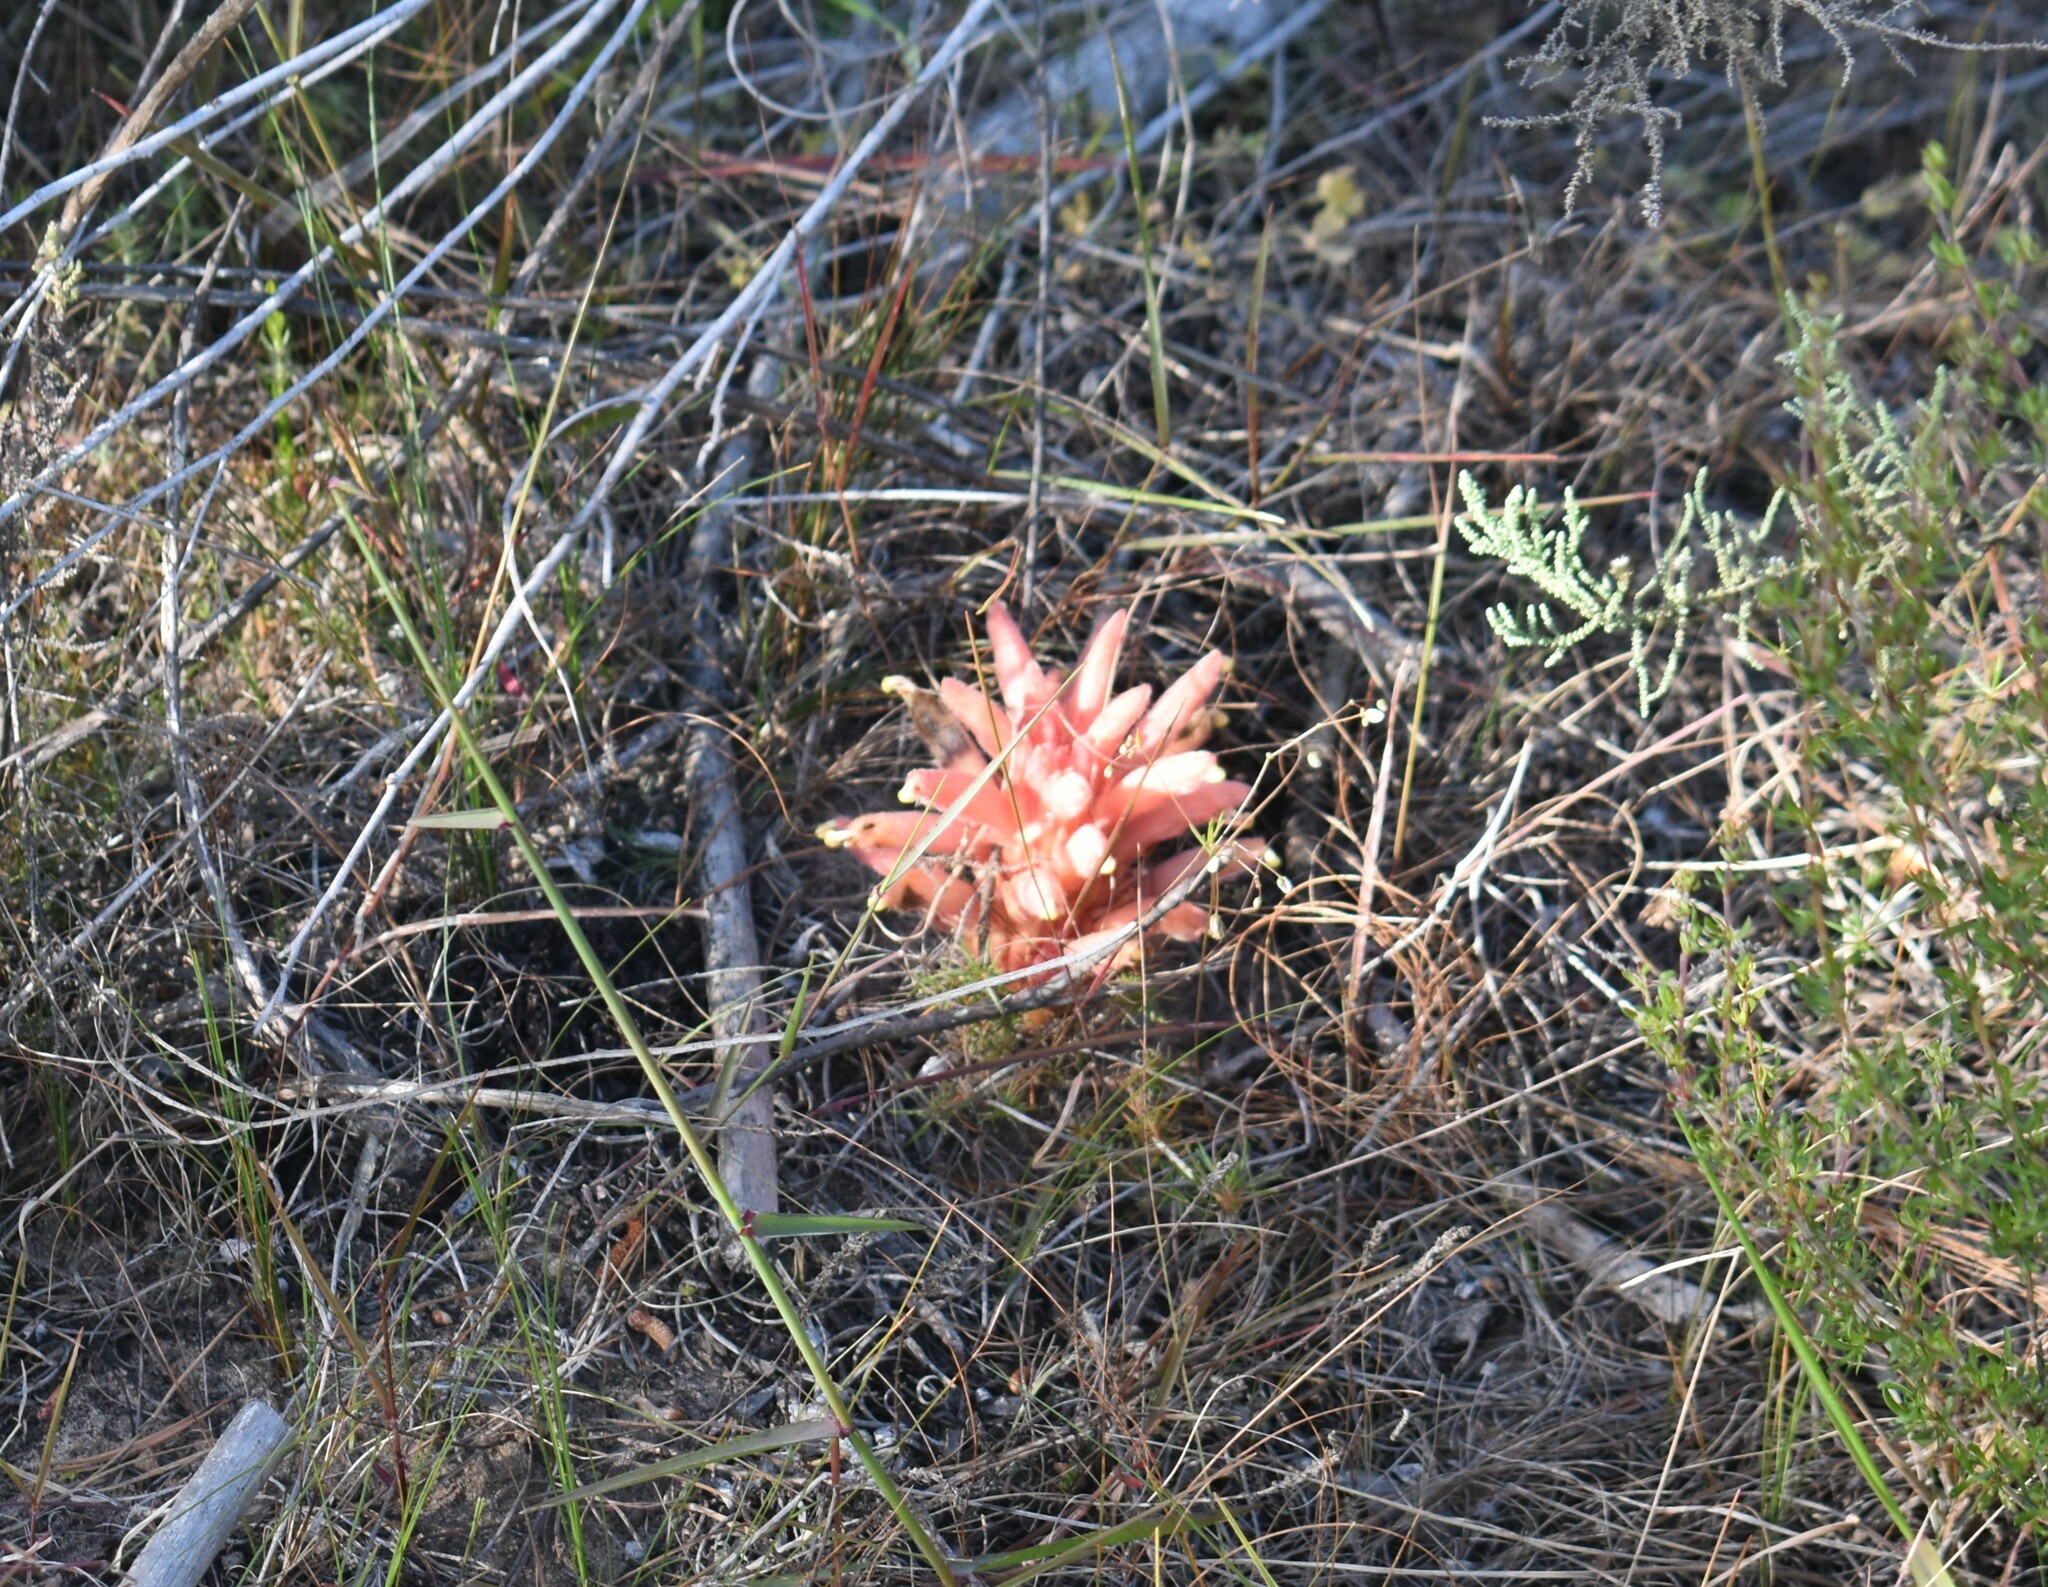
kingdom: Plantae
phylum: Tracheophyta
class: Magnoliopsida
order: Lamiales
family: Orobanchaceae
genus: Hyobanche
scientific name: Hyobanche robusta
